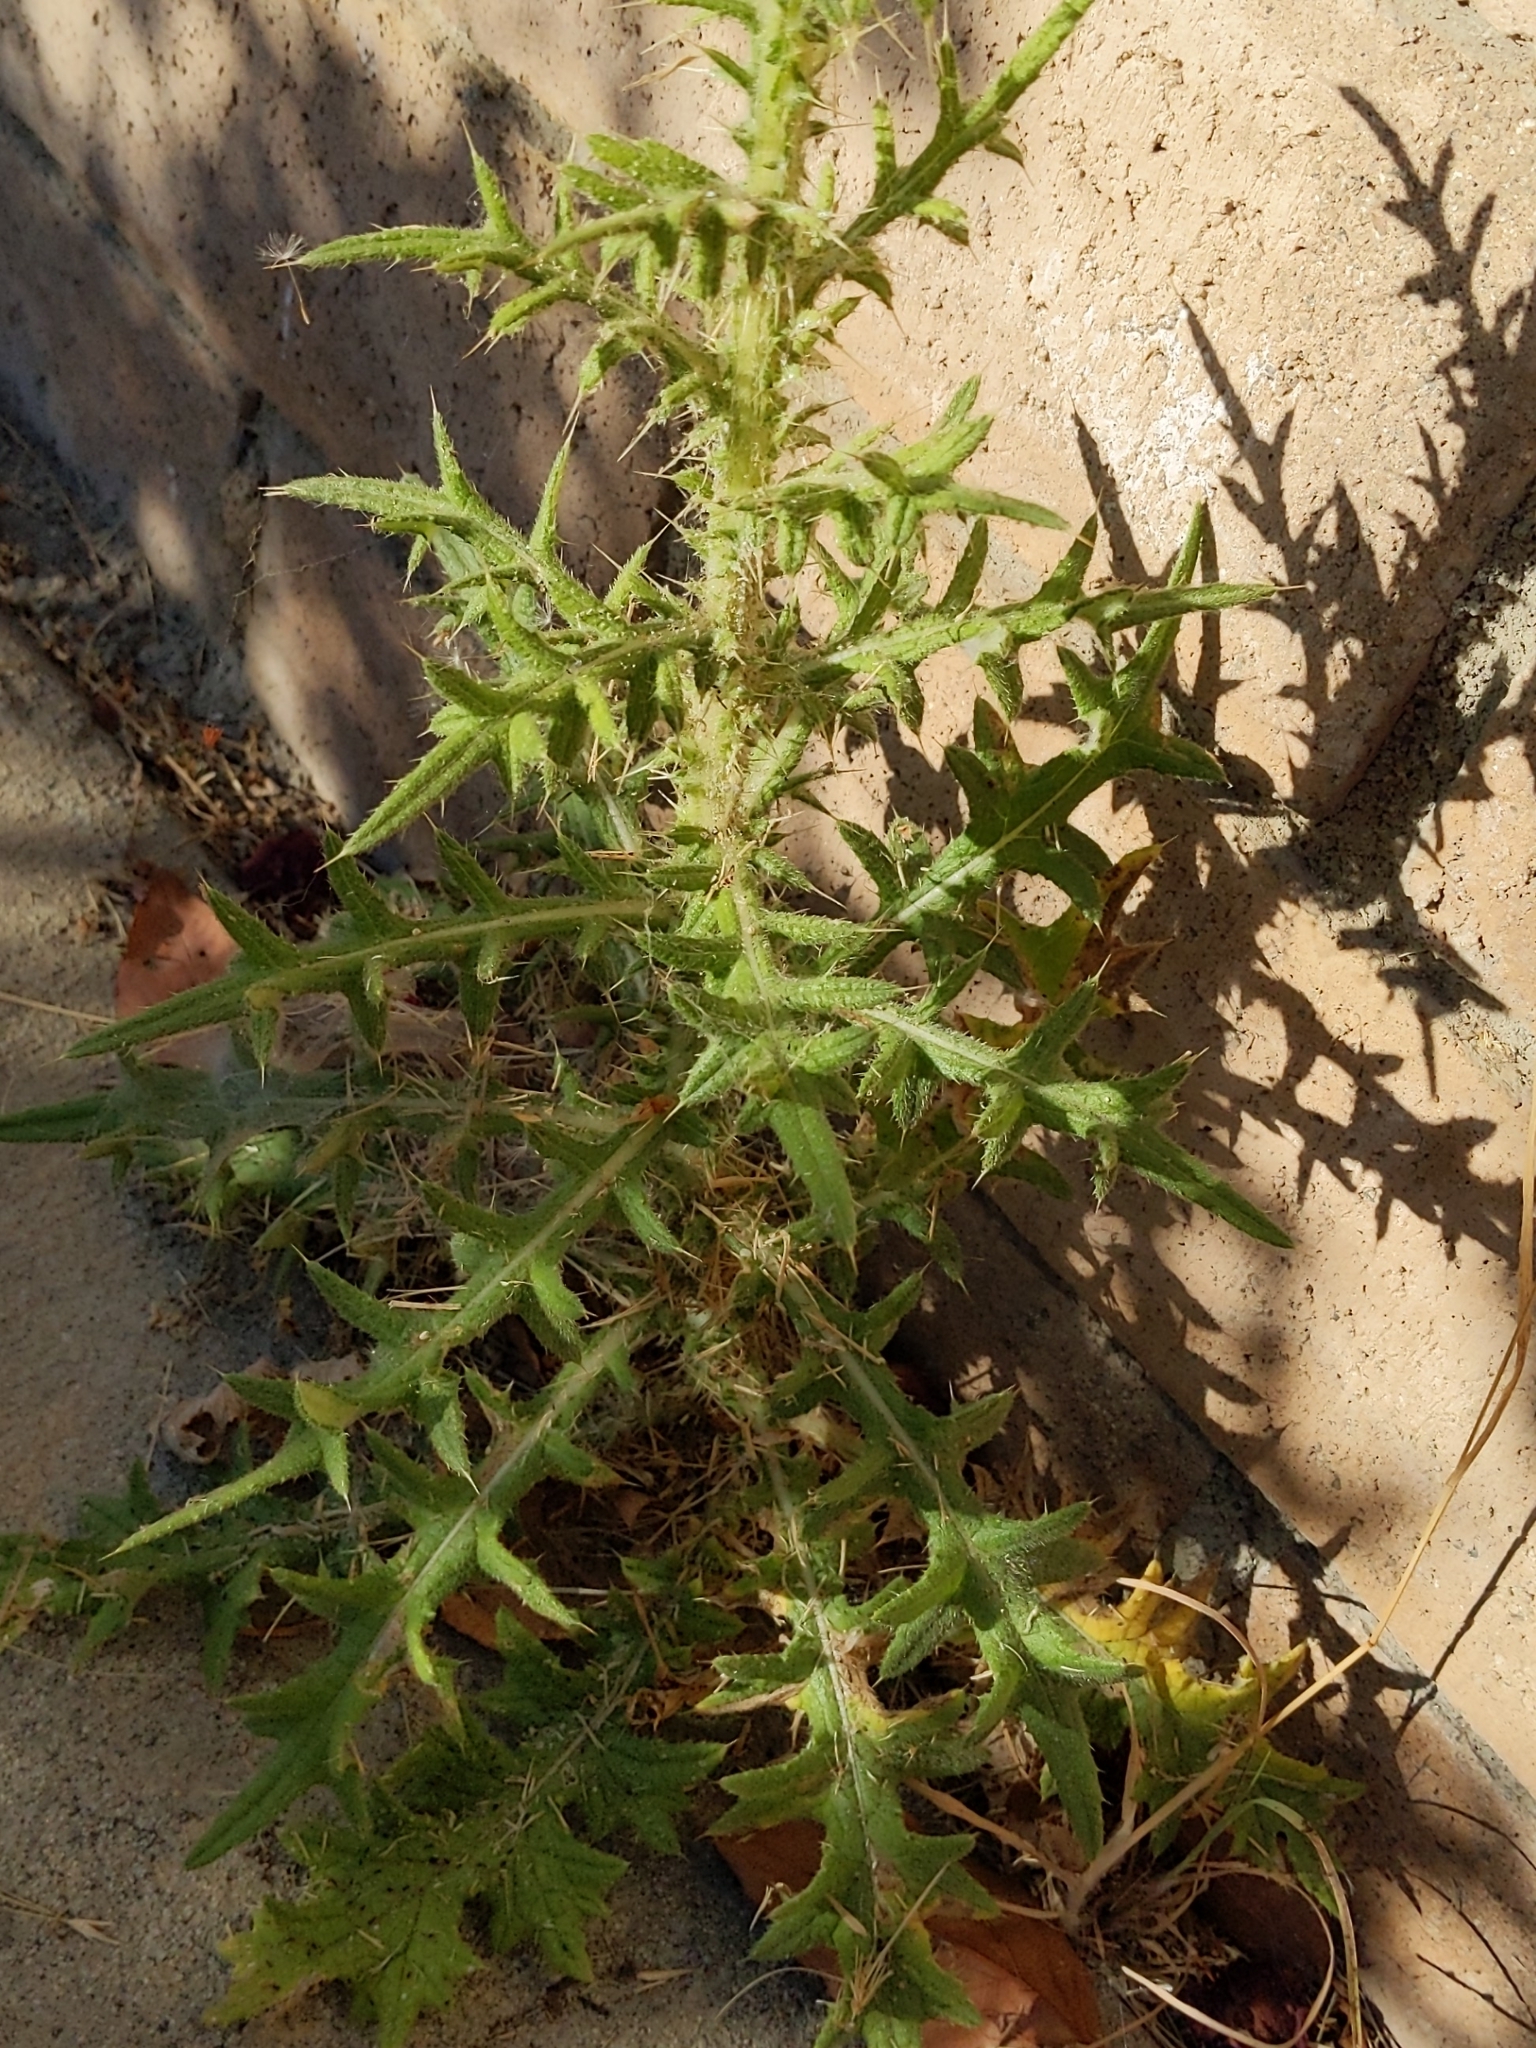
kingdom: Plantae
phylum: Tracheophyta
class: Magnoliopsida
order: Asterales
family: Asteraceae
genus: Cirsium
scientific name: Cirsium vulgare
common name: Bull thistle
